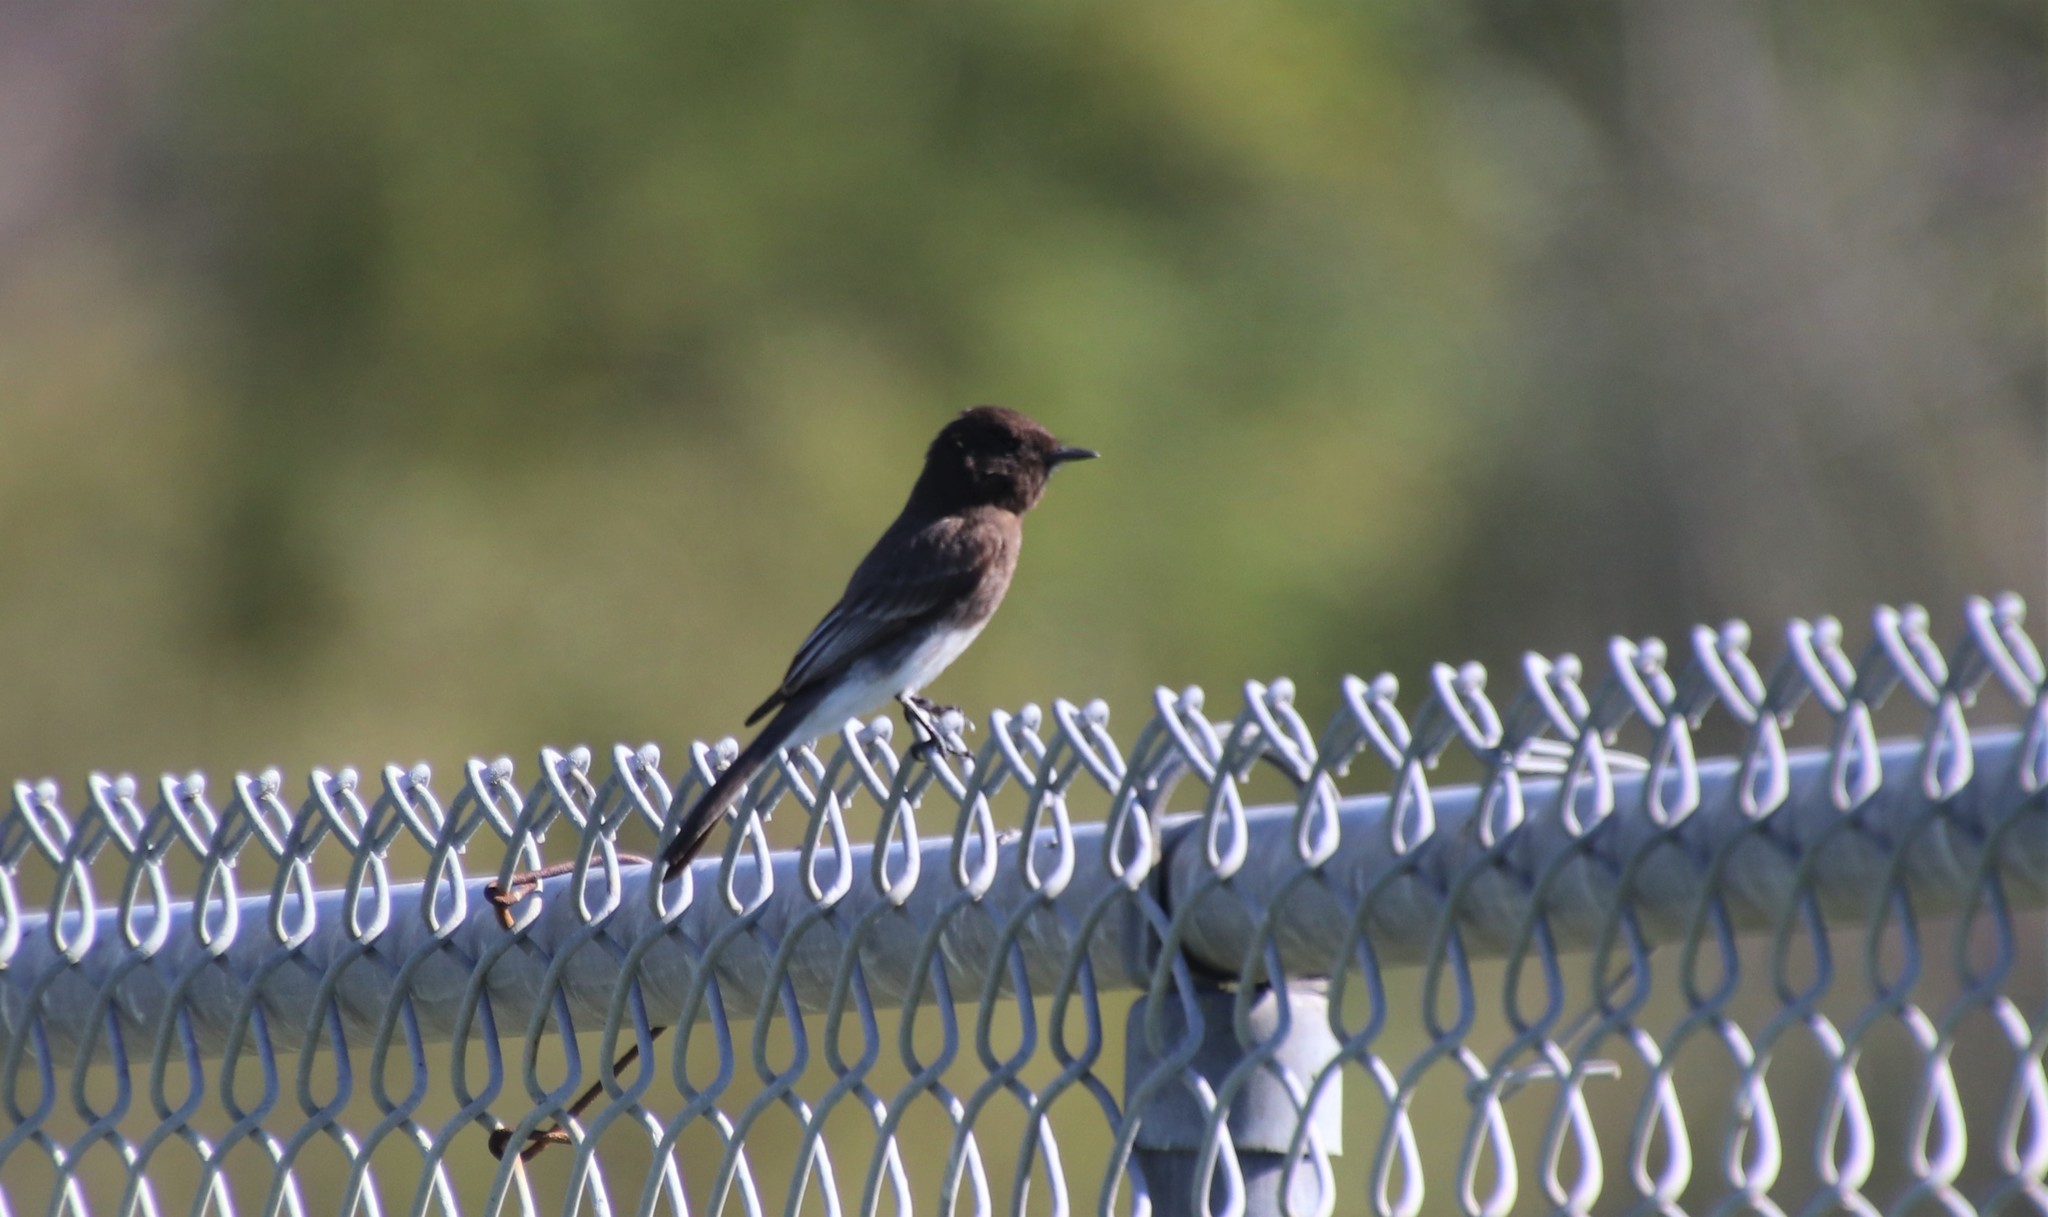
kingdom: Animalia
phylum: Chordata
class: Aves
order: Passeriformes
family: Tyrannidae
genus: Sayornis
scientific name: Sayornis nigricans
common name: Black phoebe
